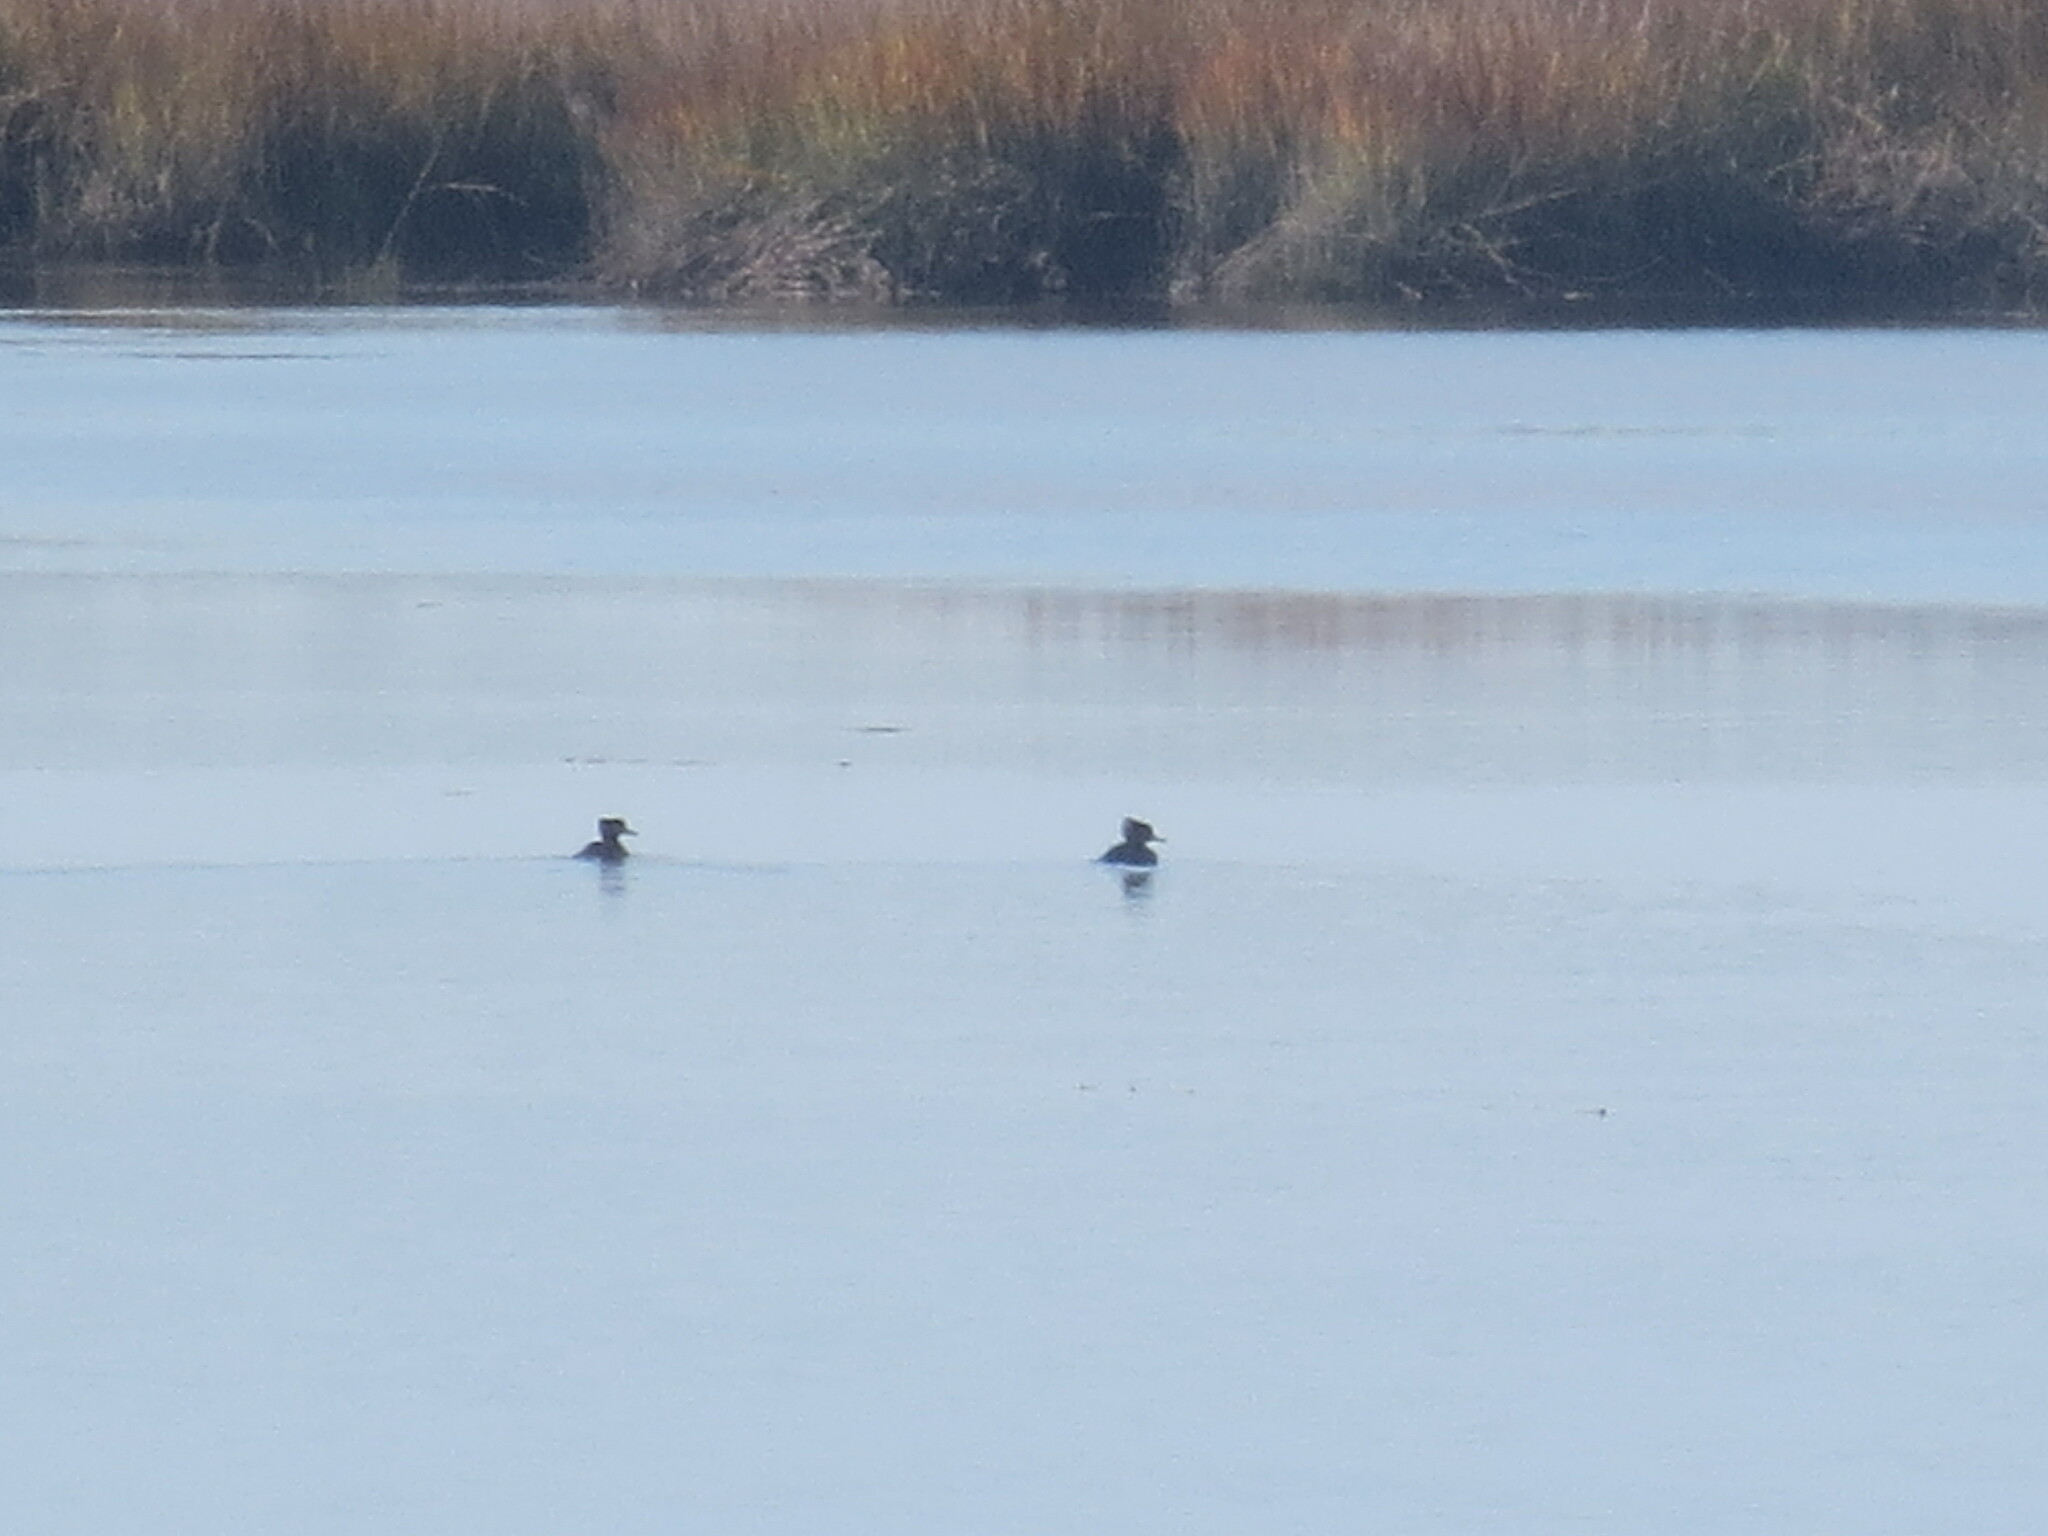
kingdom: Animalia
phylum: Chordata
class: Aves
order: Anseriformes
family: Anatidae
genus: Lophodytes
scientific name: Lophodytes cucullatus
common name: Hooded merganser
